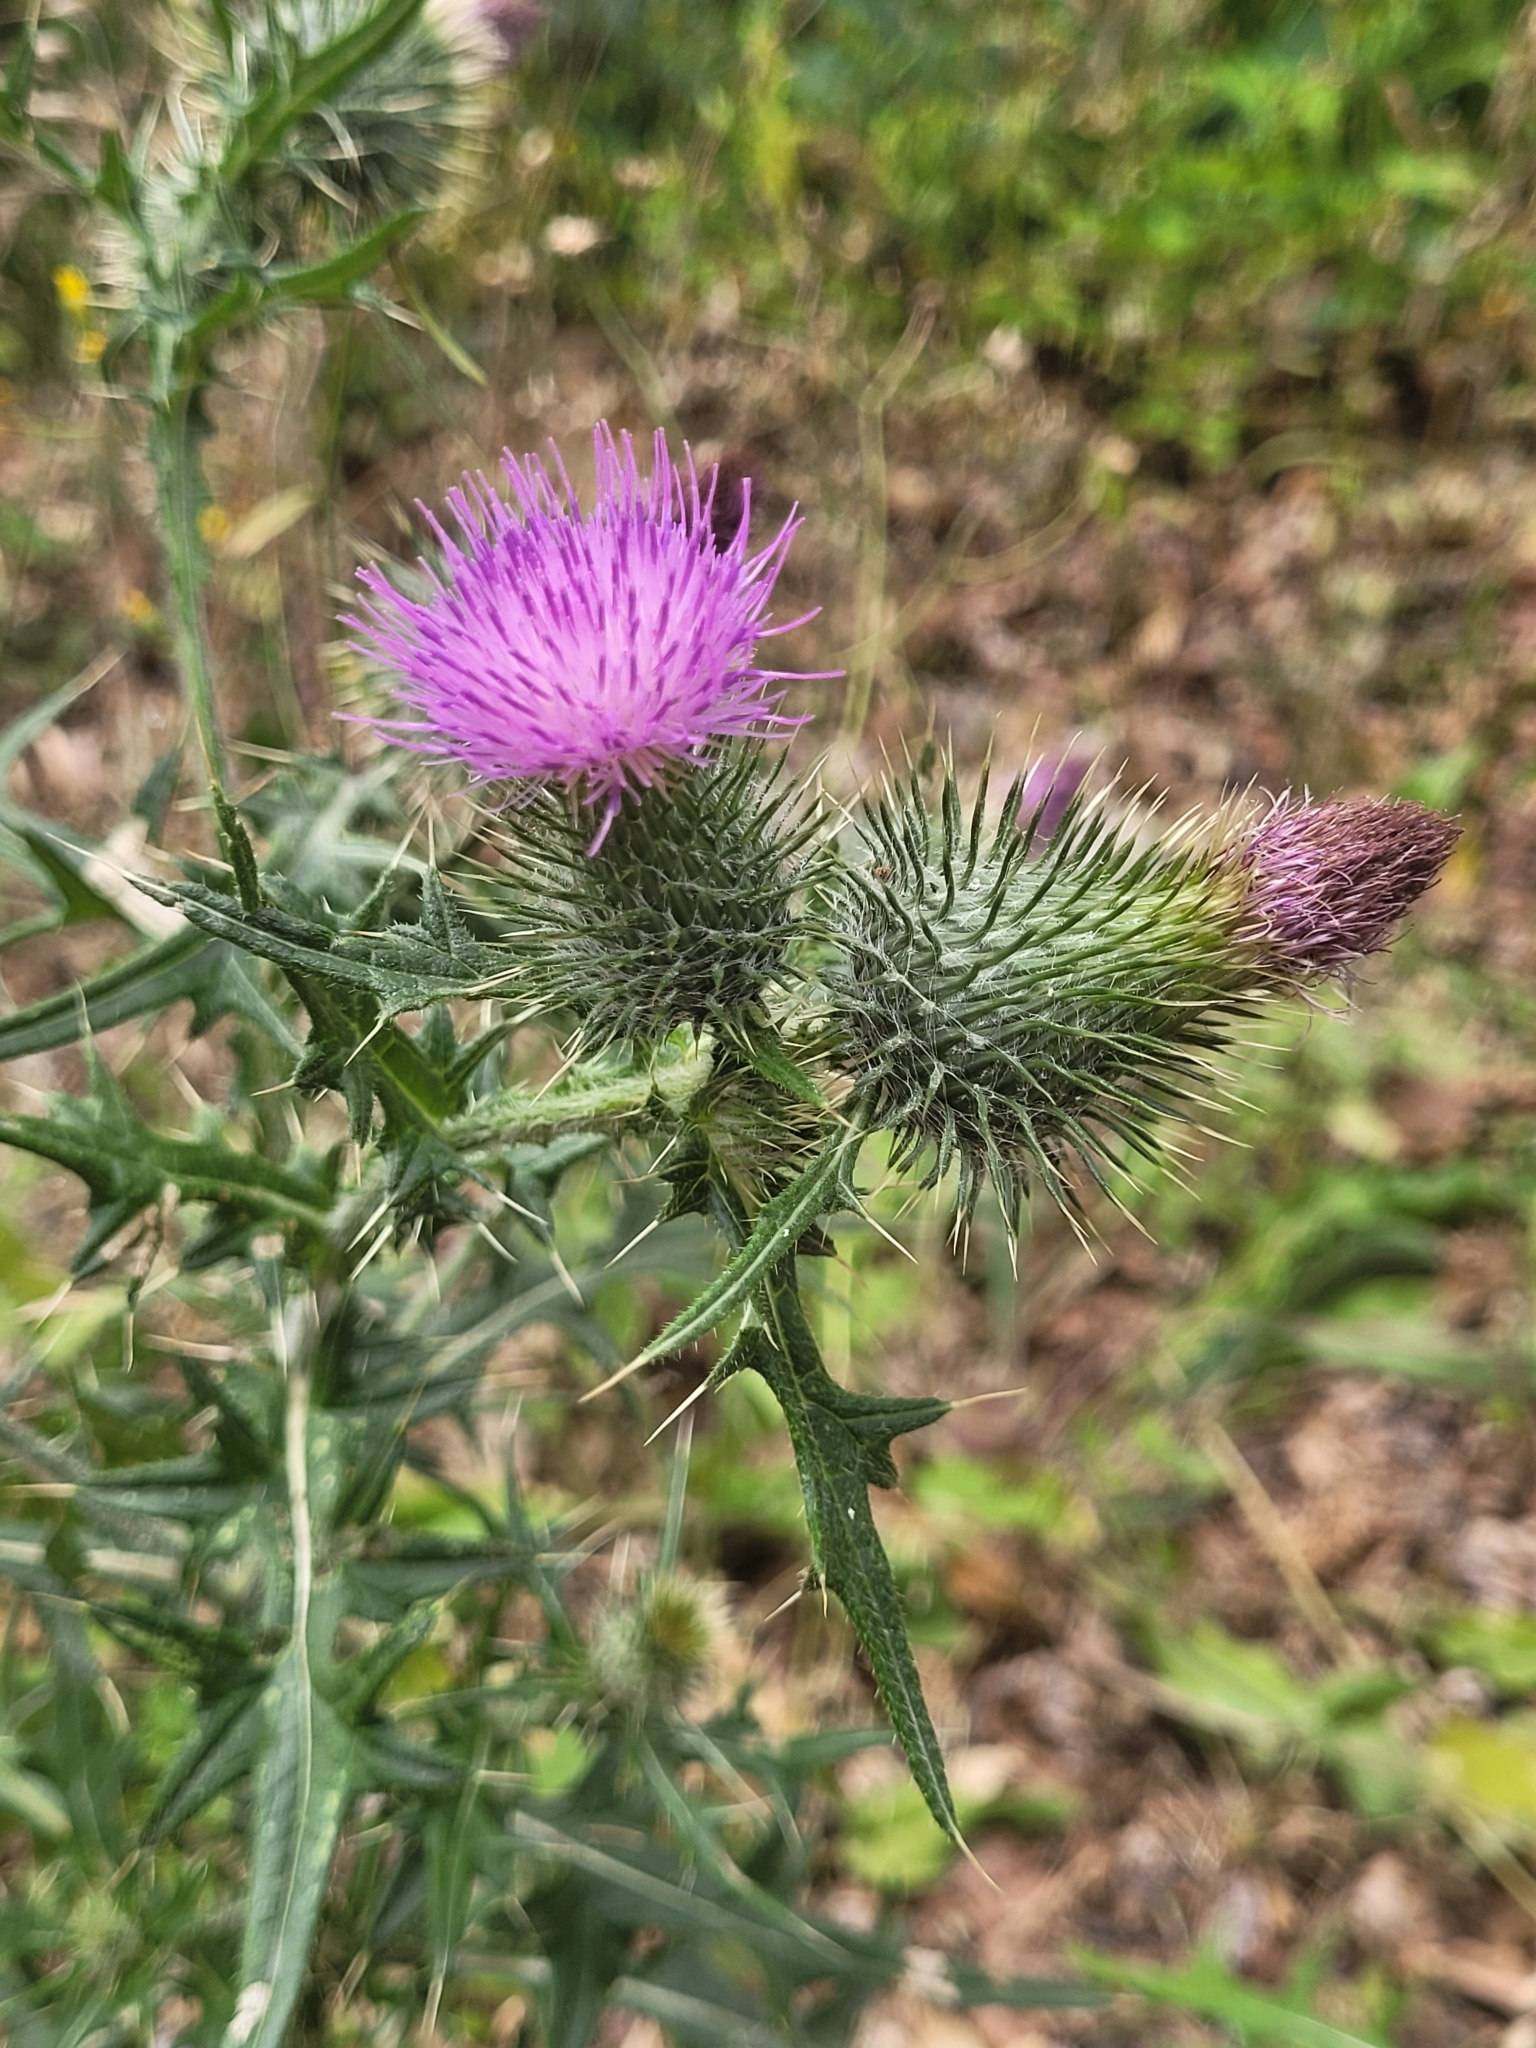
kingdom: Plantae
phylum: Tracheophyta
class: Magnoliopsida
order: Asterales
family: Asteraceae
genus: Cirsium
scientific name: Cirsium vulgare
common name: Bull thistle
